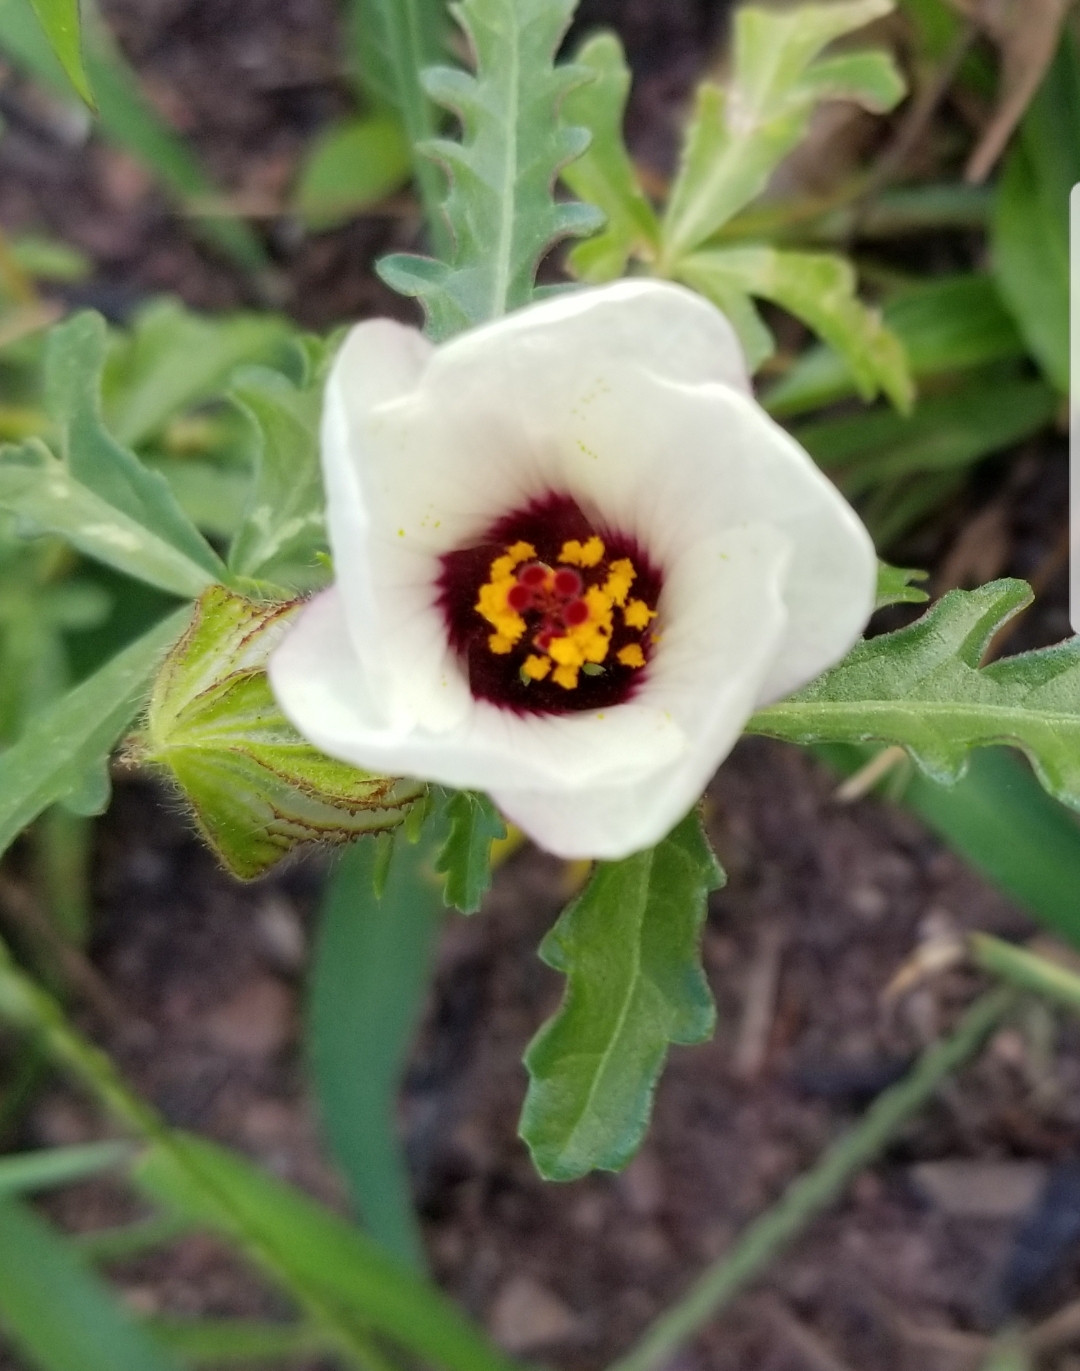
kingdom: Plantae
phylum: Tracheophyta
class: Magnoliopsida
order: Malvales
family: Malvaceae
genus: Hibiscus
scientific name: Hibiscus trionum
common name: Bladder ketmia
